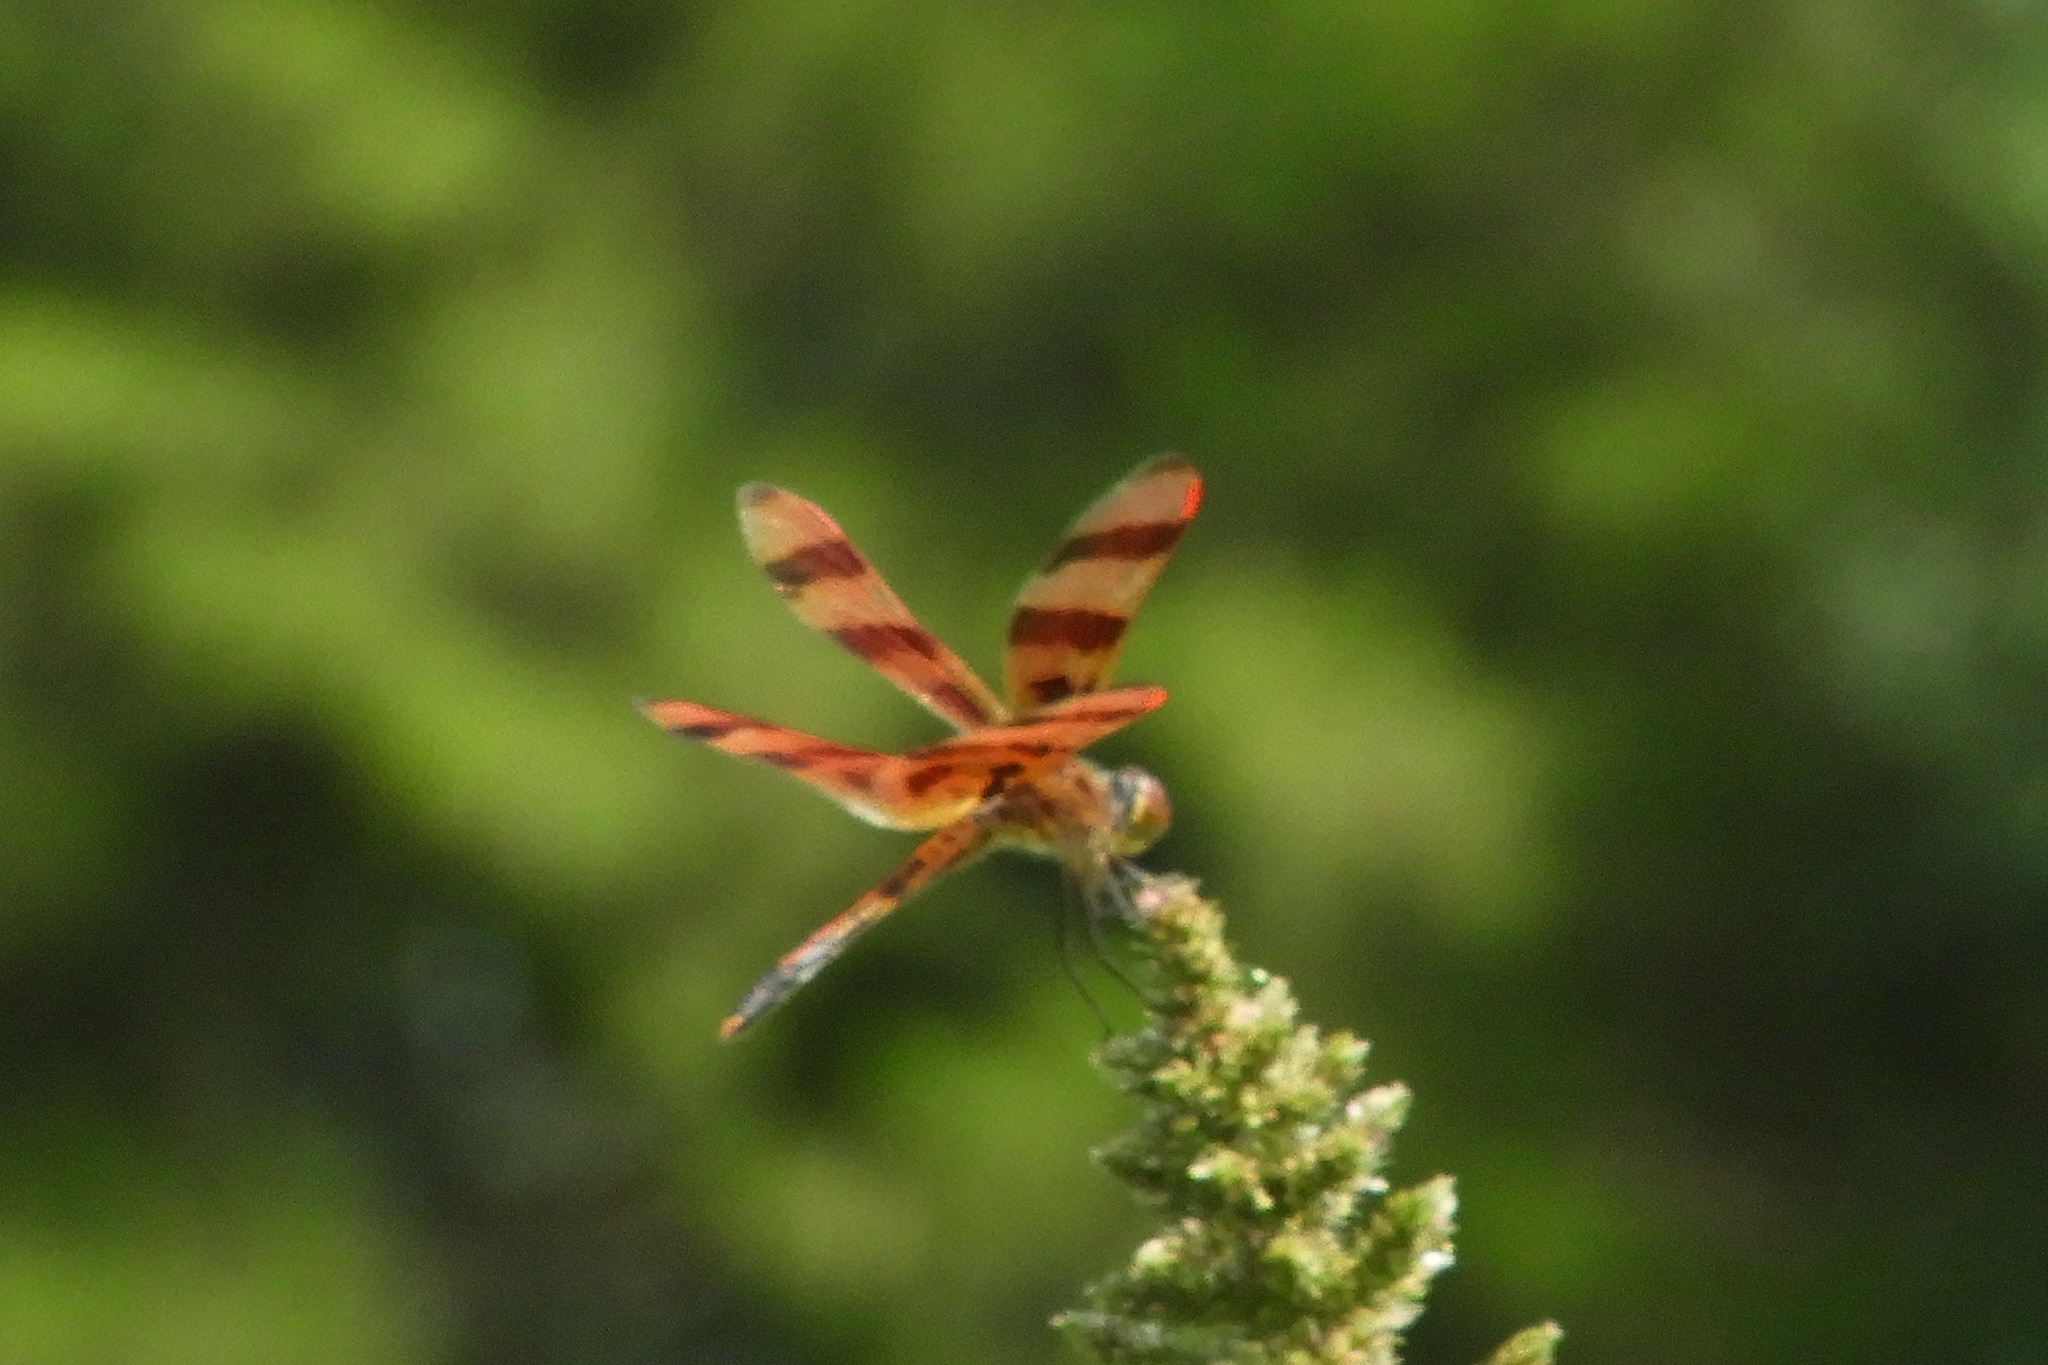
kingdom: Animalia
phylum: Arthropoda
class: Insecta
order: Odonata
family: Libellulidae
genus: Celithemis
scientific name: Celithemis eponina
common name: Halloween pennant
